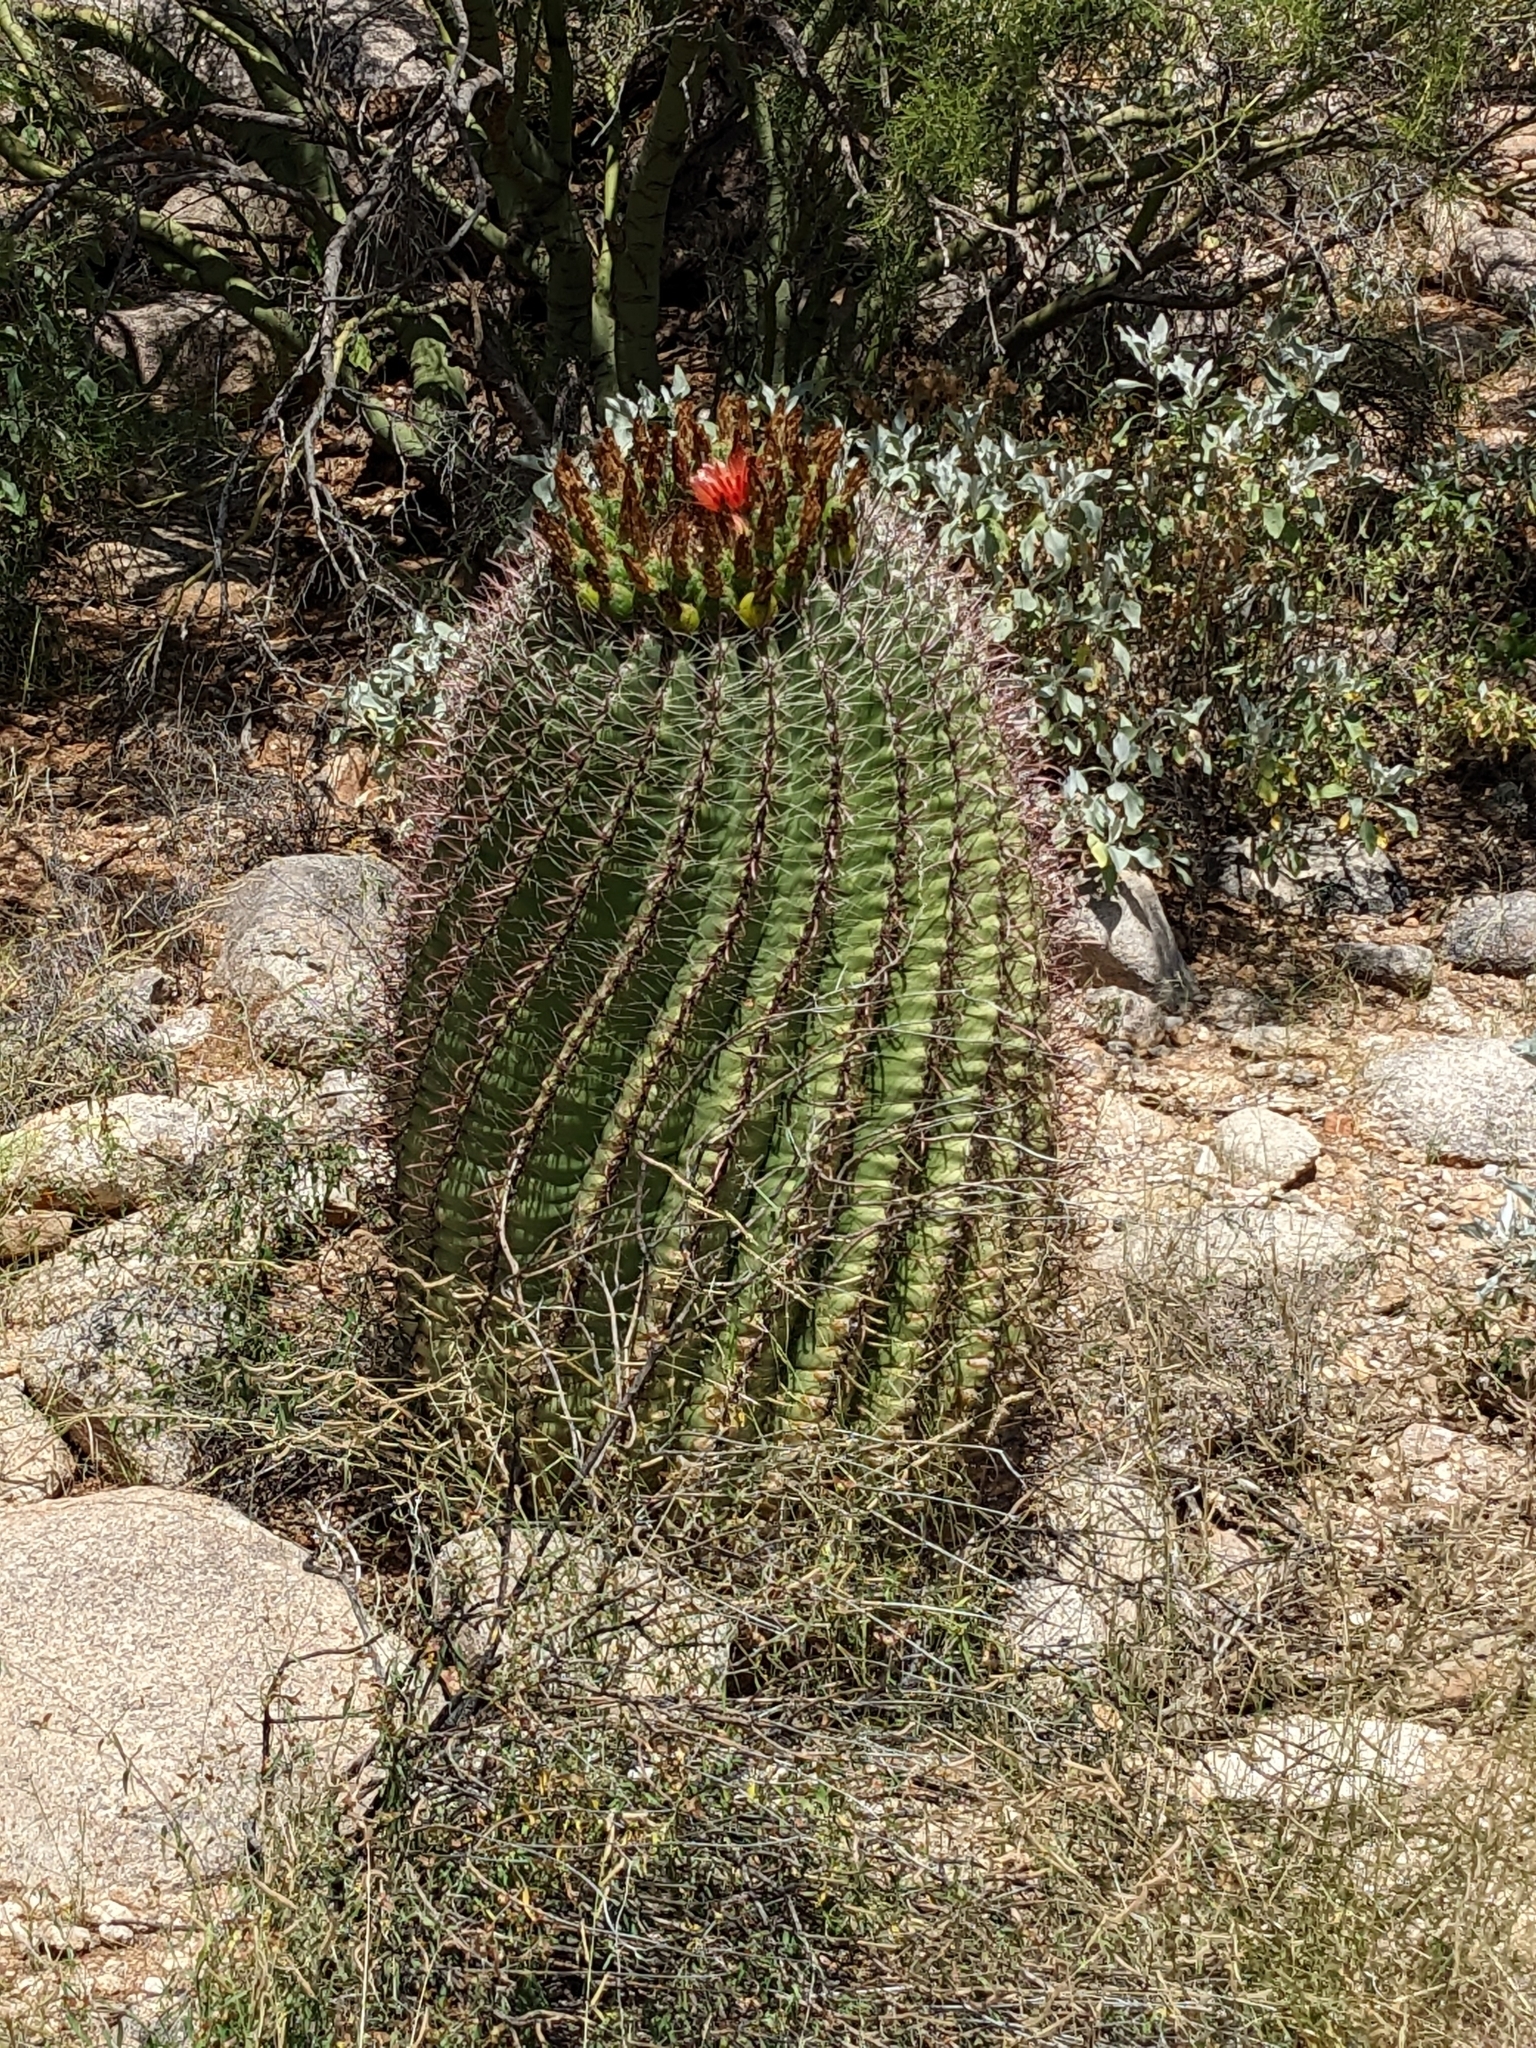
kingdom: Plantae
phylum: Tracheophyta
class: Magnoliopsida
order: Caryophyllales
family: Cactaceae
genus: Ferocactus
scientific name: Ferocactus wislizeni
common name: Candy barrel cactus
